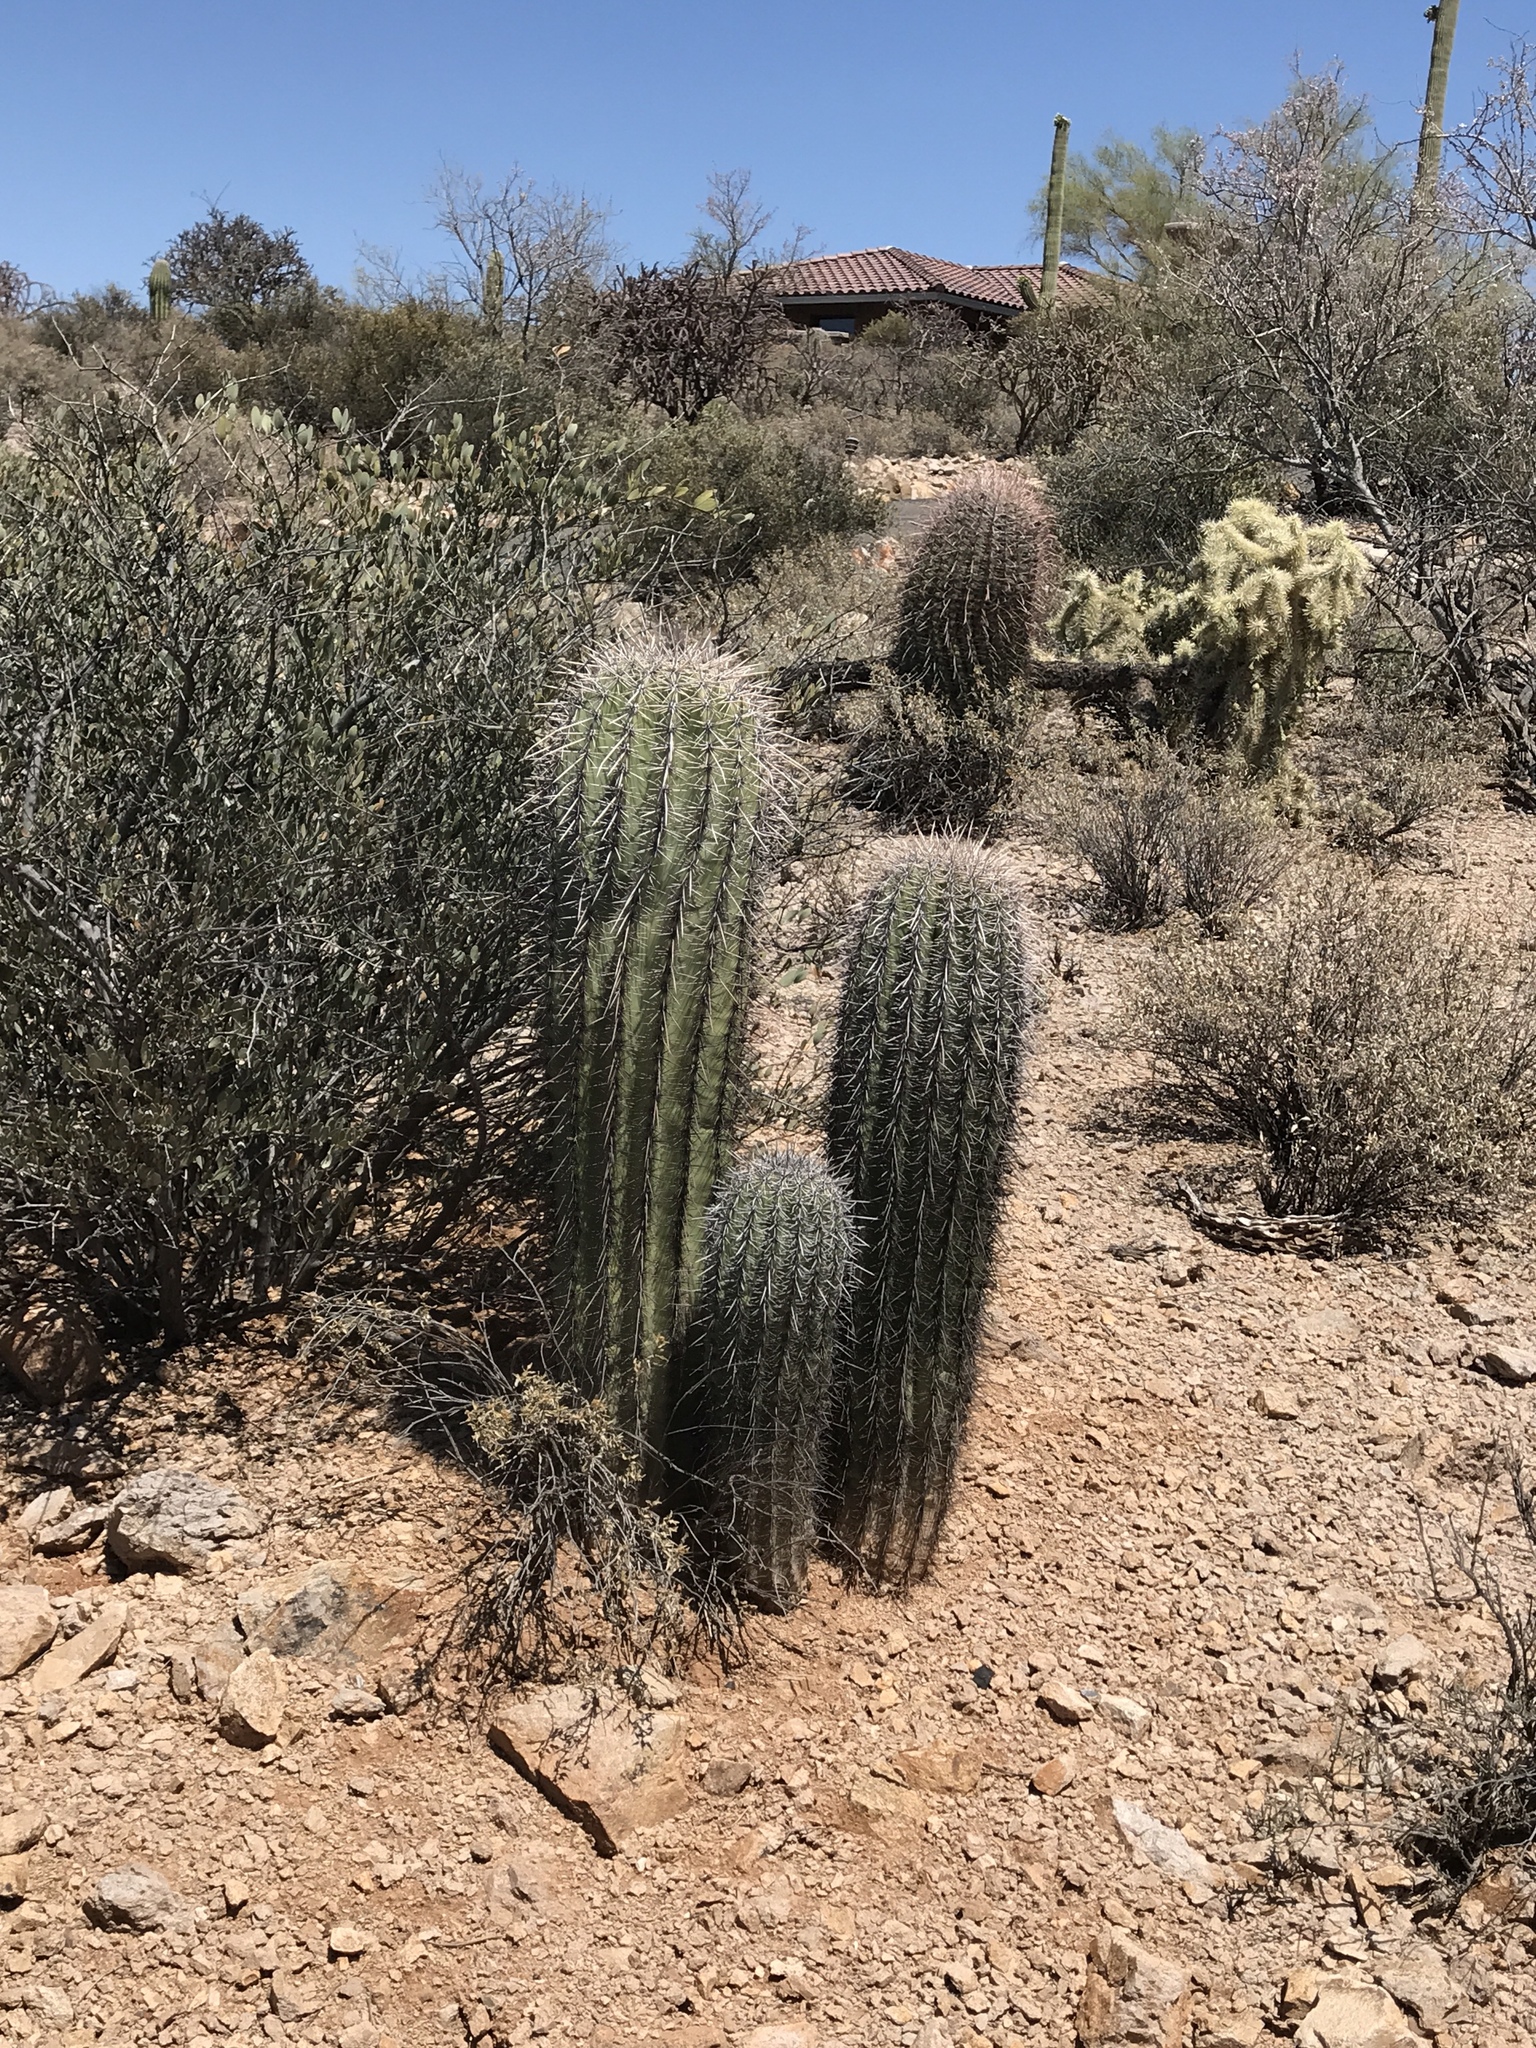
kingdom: Plantae
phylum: Tracheophyta
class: Magnoliopsida
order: Caryophyllales
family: Cactaceae
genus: Carnegiea
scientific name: Carnegiea gigantea
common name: Saguaro
